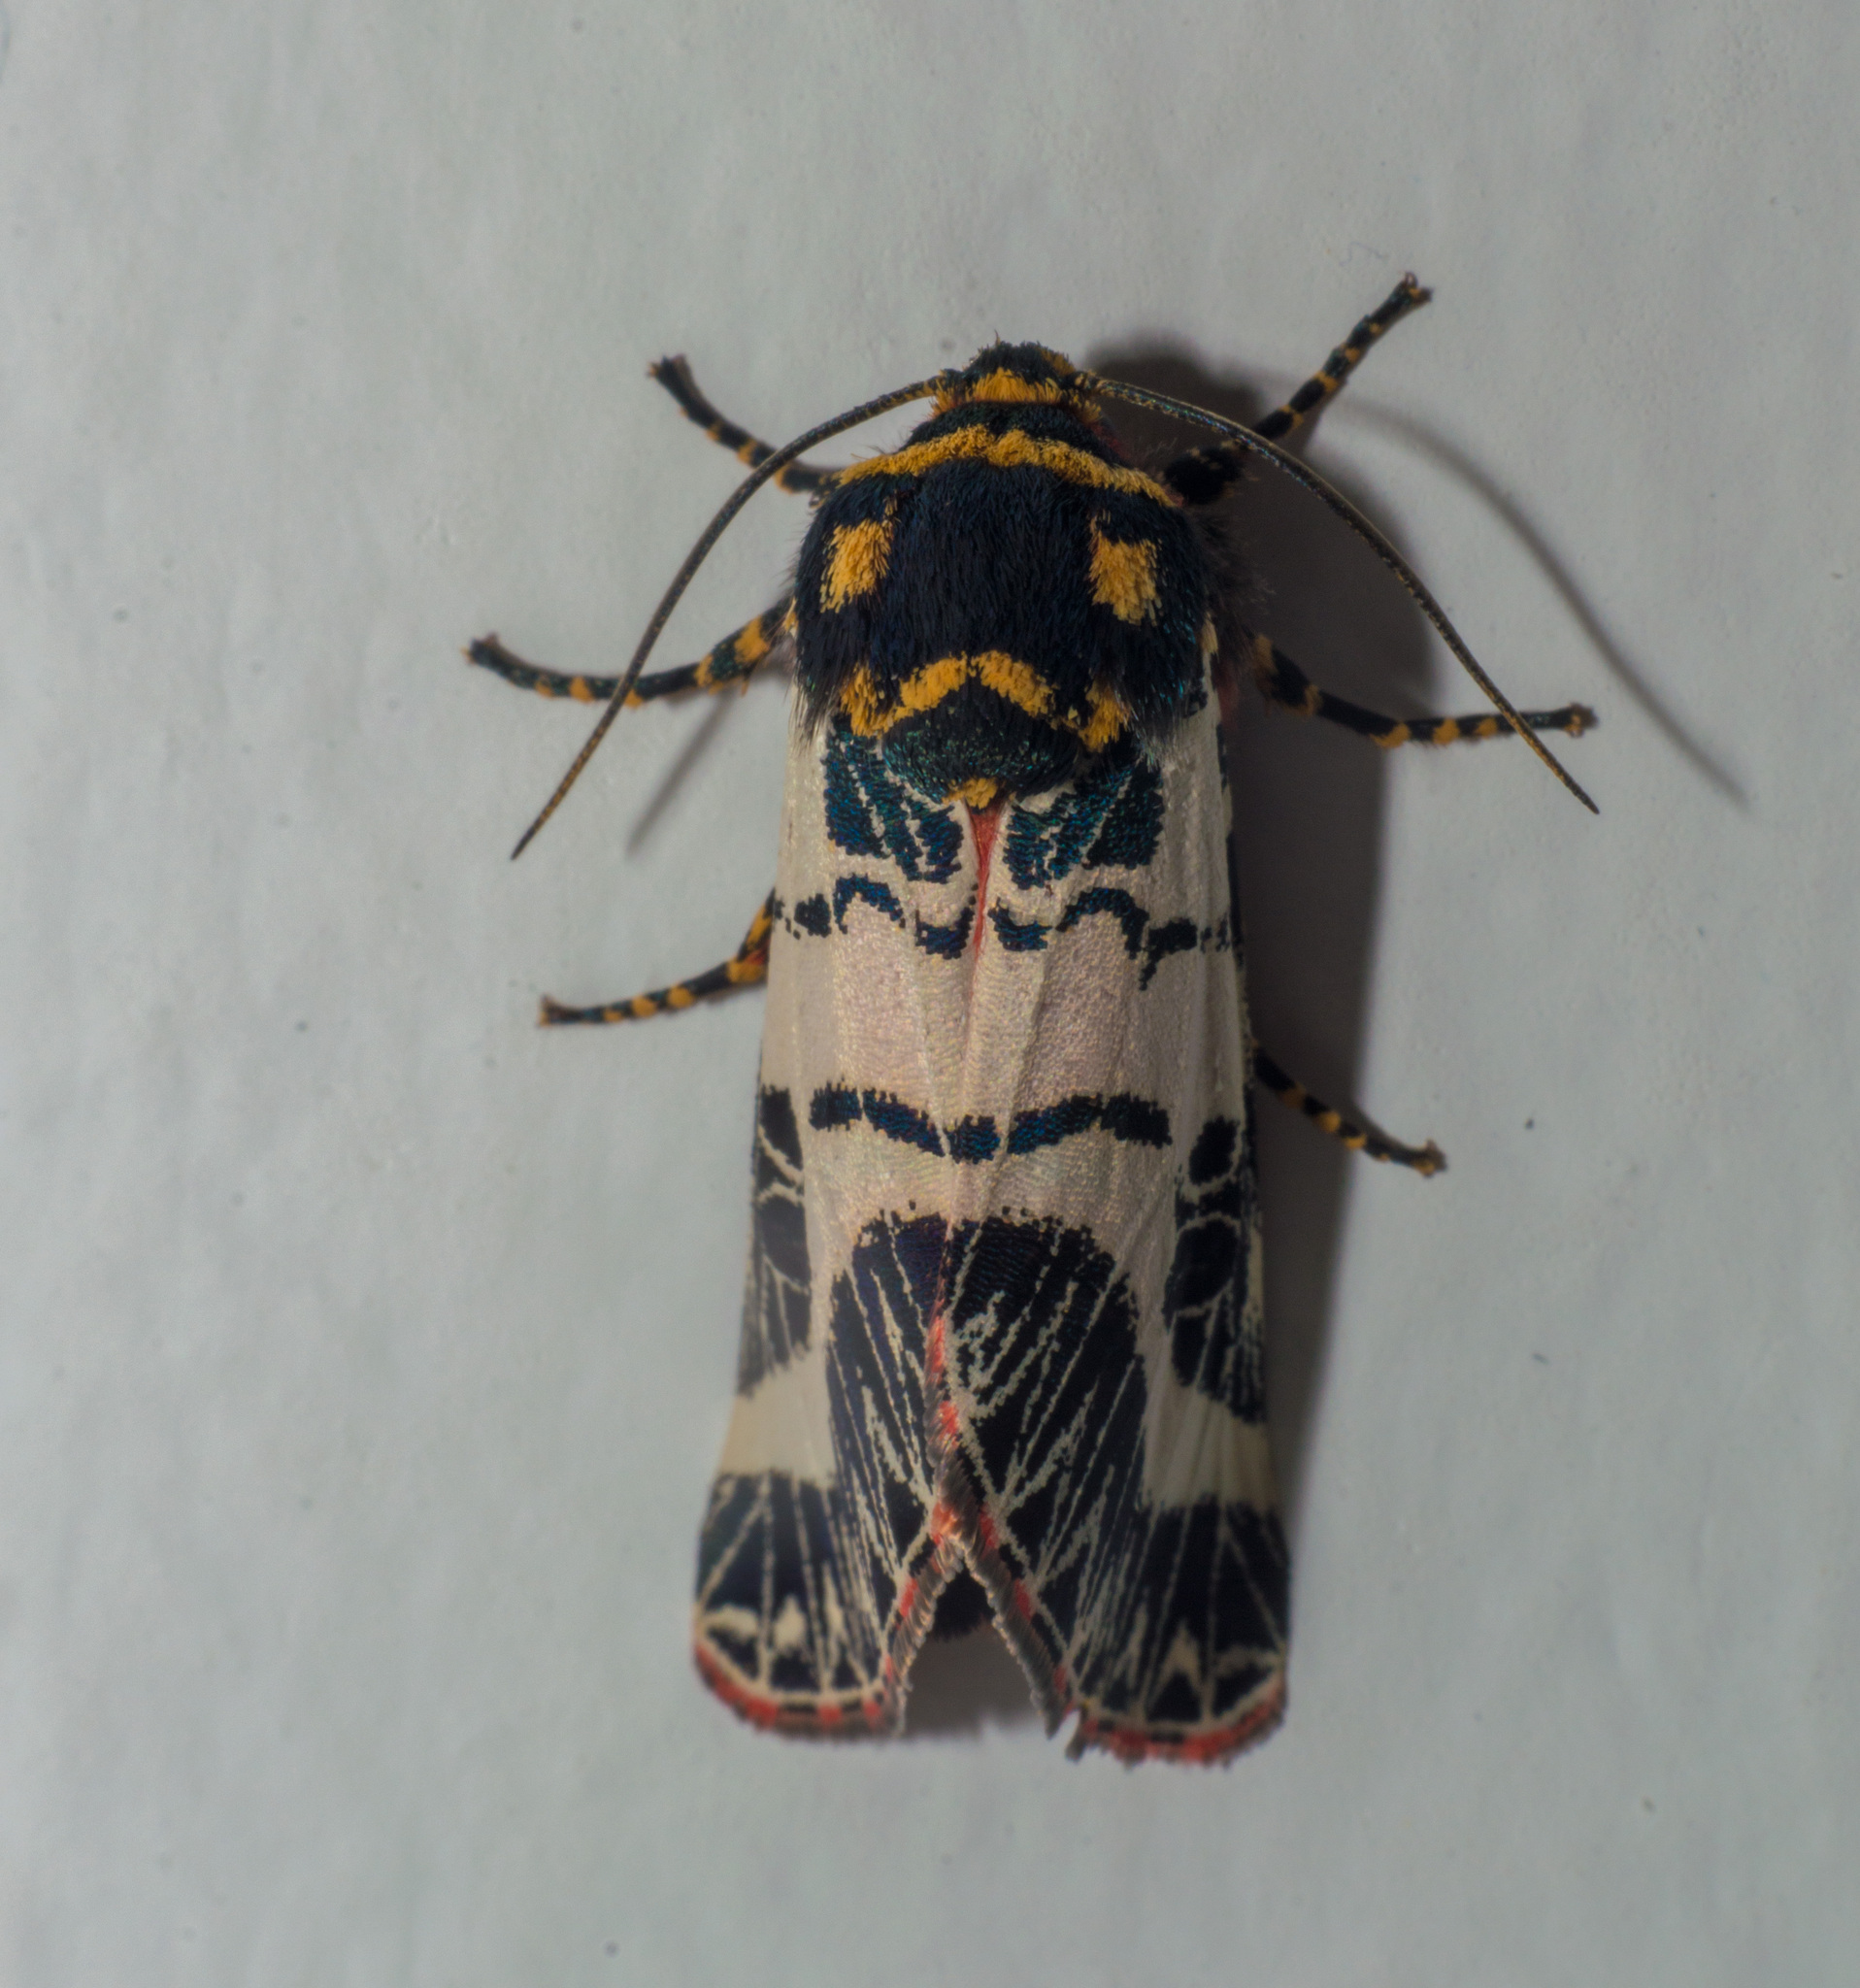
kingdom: Animalia
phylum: Arthropoda
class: Insecta
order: Lepidoptera
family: Noctuidae
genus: Chlanidophora
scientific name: Chlanidophora patagiata
